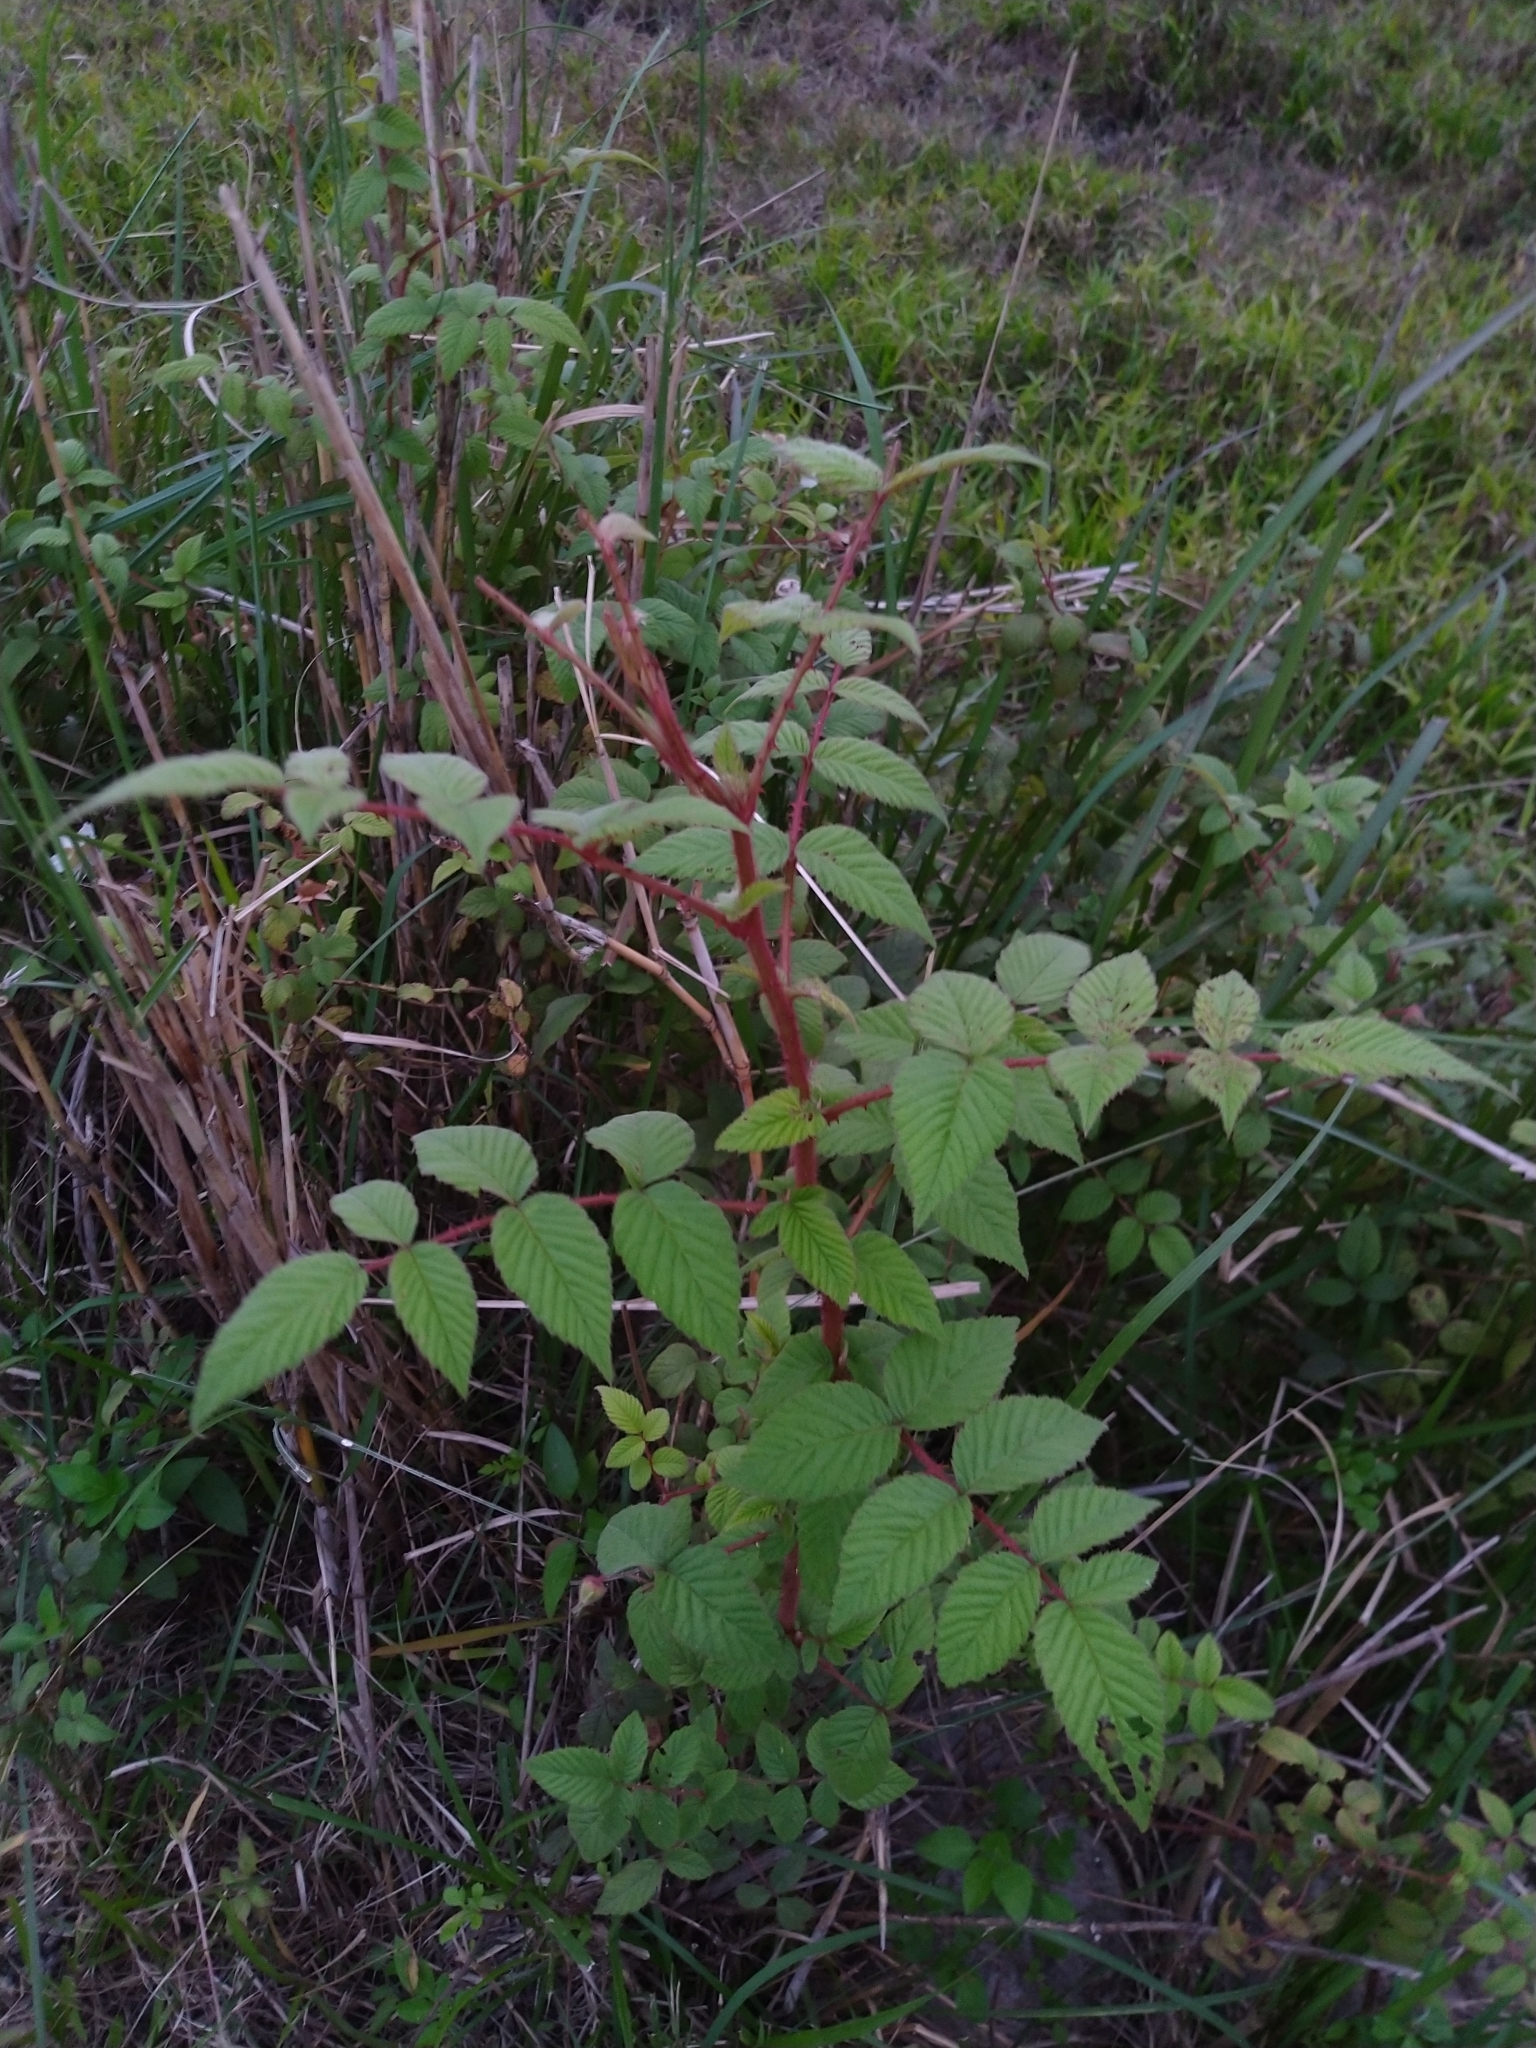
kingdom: Plantae
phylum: Tracheophyta
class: Magnoliopsida
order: Rosales
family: Rosaceae
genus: Rubus
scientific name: Rubus croceacanthus
